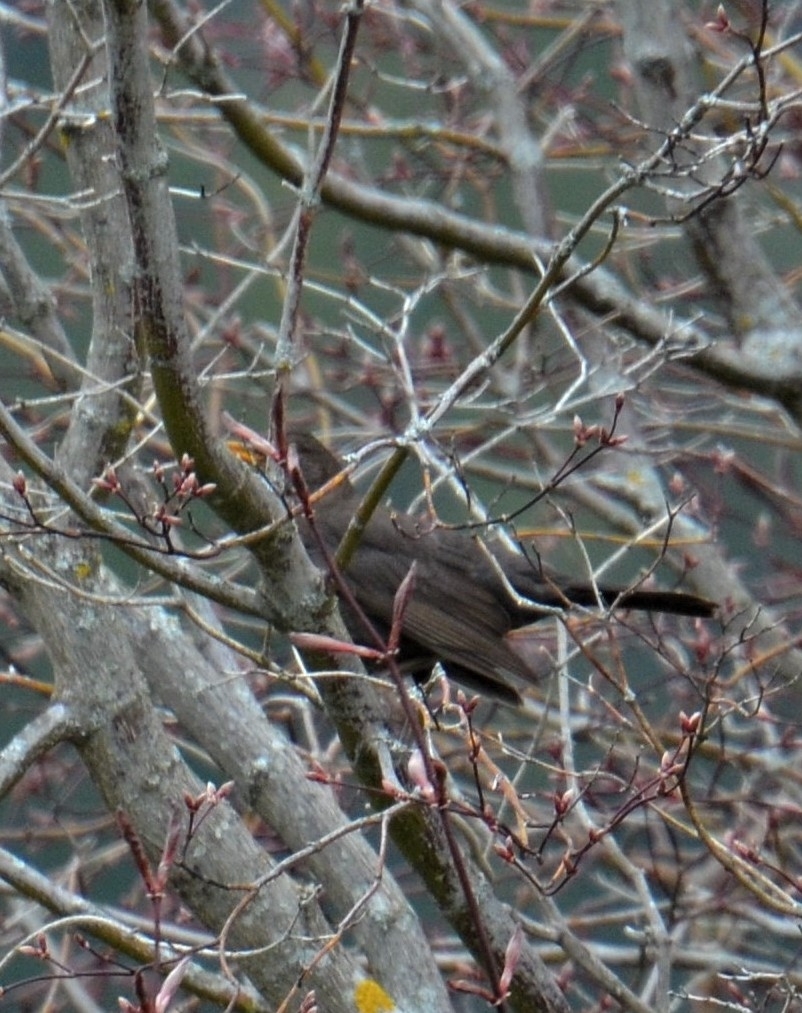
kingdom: Animalia
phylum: Chordata
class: Aves
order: Passeriformes
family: Turdidae
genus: Turdus
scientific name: Turdus merula
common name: Common blackbird
